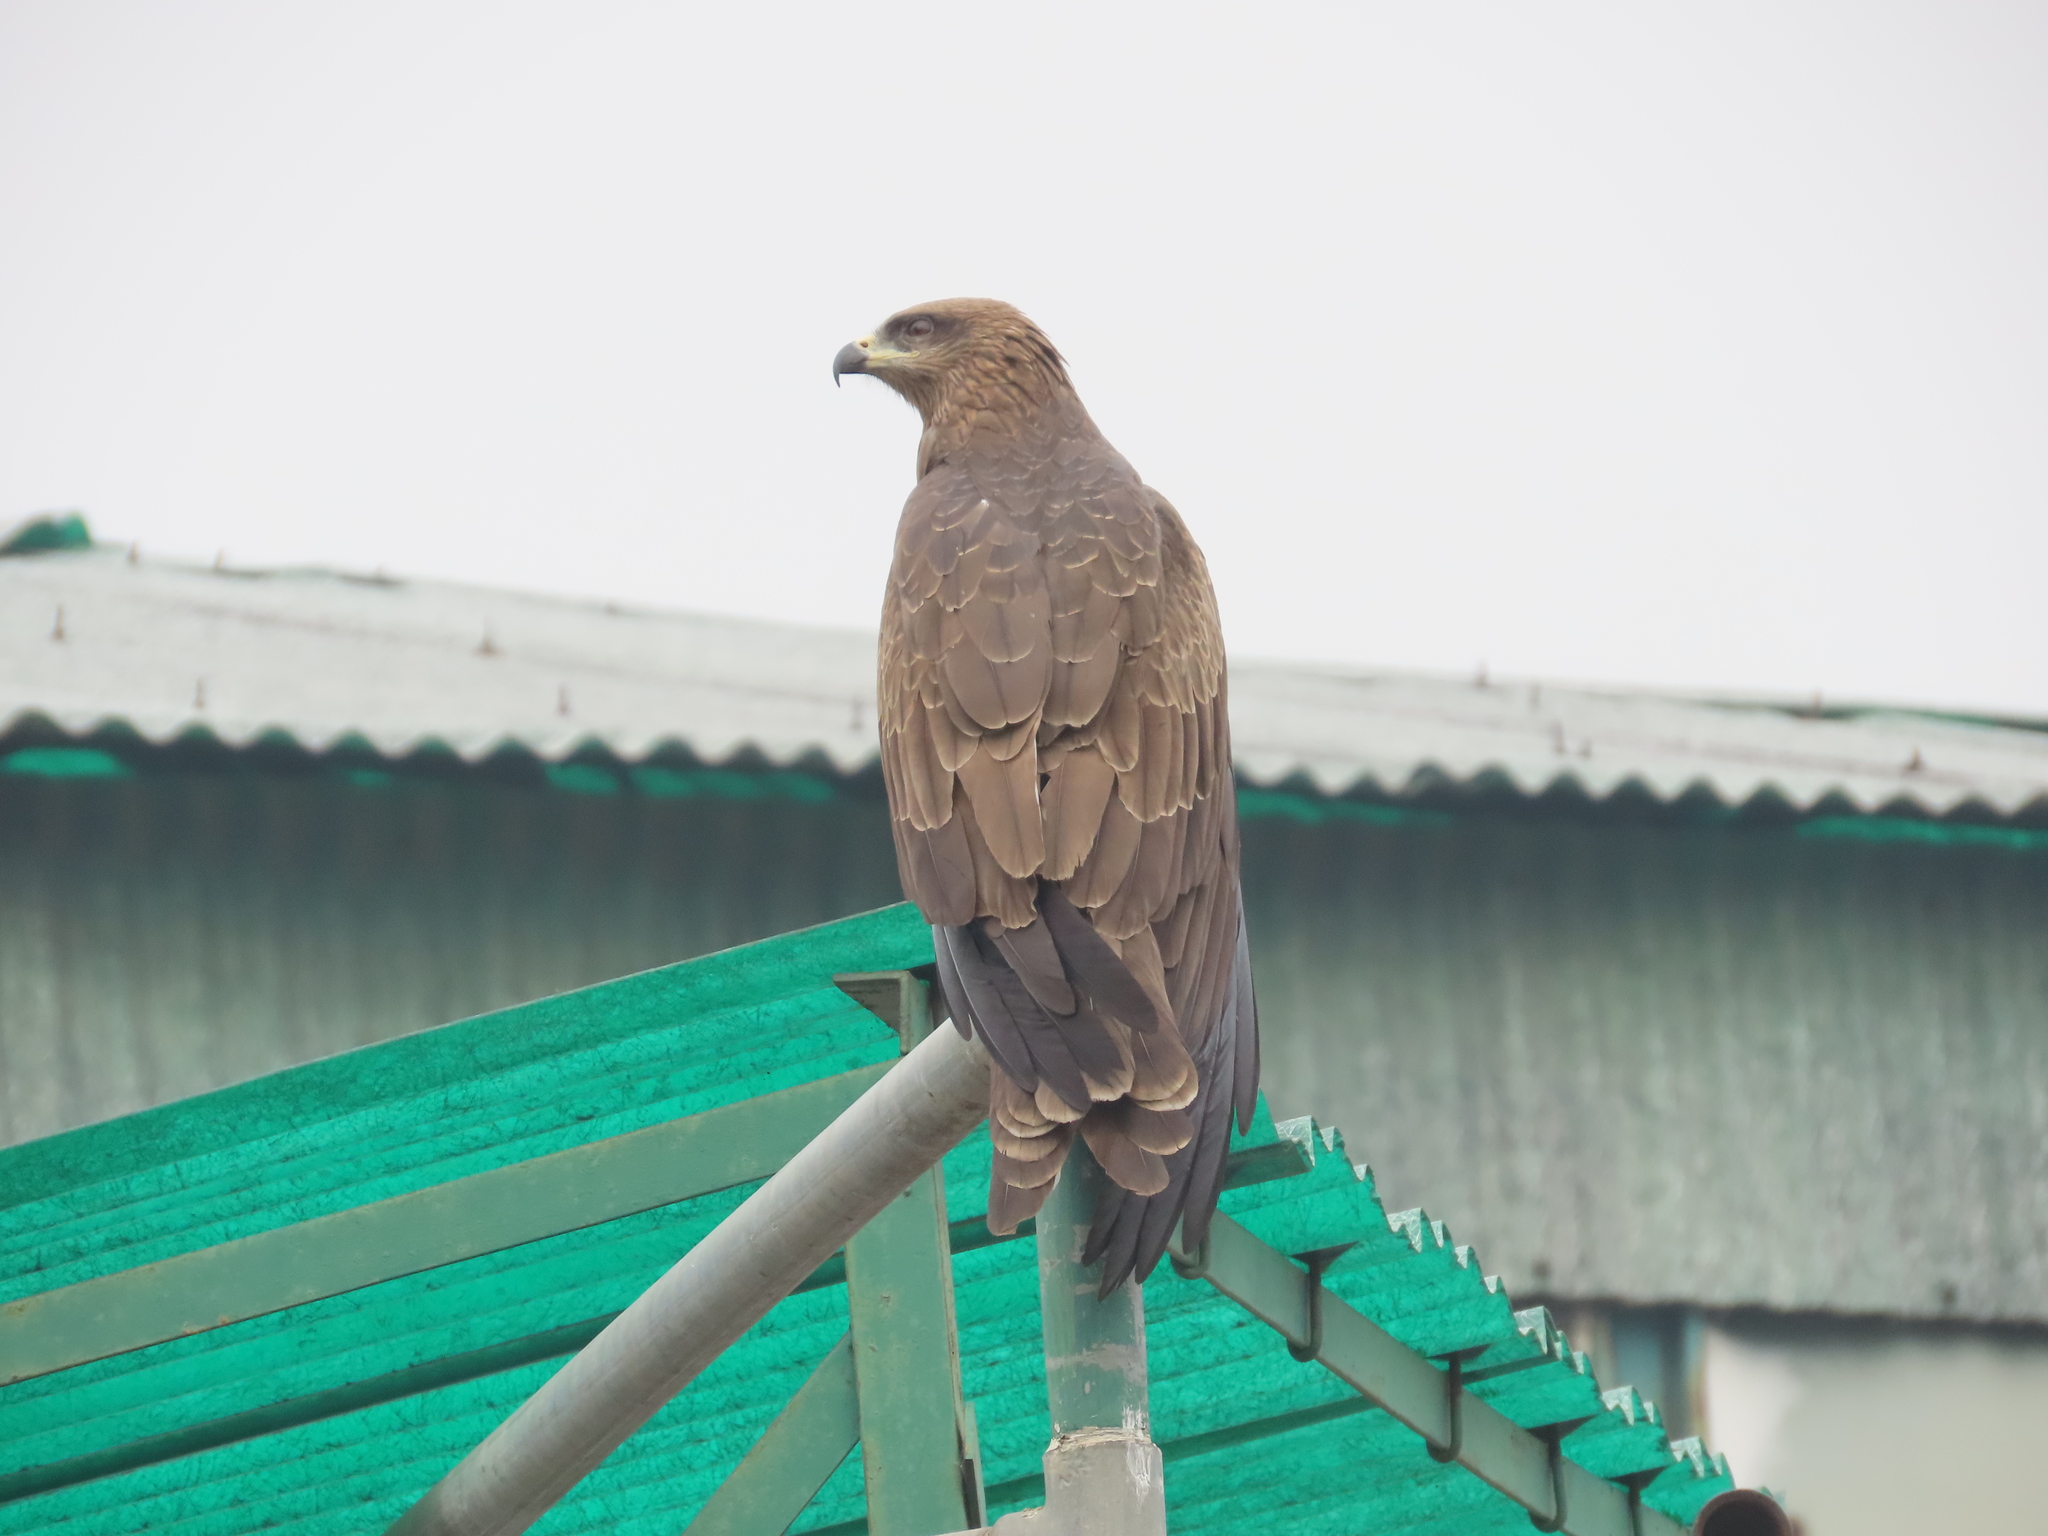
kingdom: Animalia
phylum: Chordata
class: Aves
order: Accipitriformes
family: Accipitridae
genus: Milvus
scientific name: Milvus migrans
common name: Black kite
